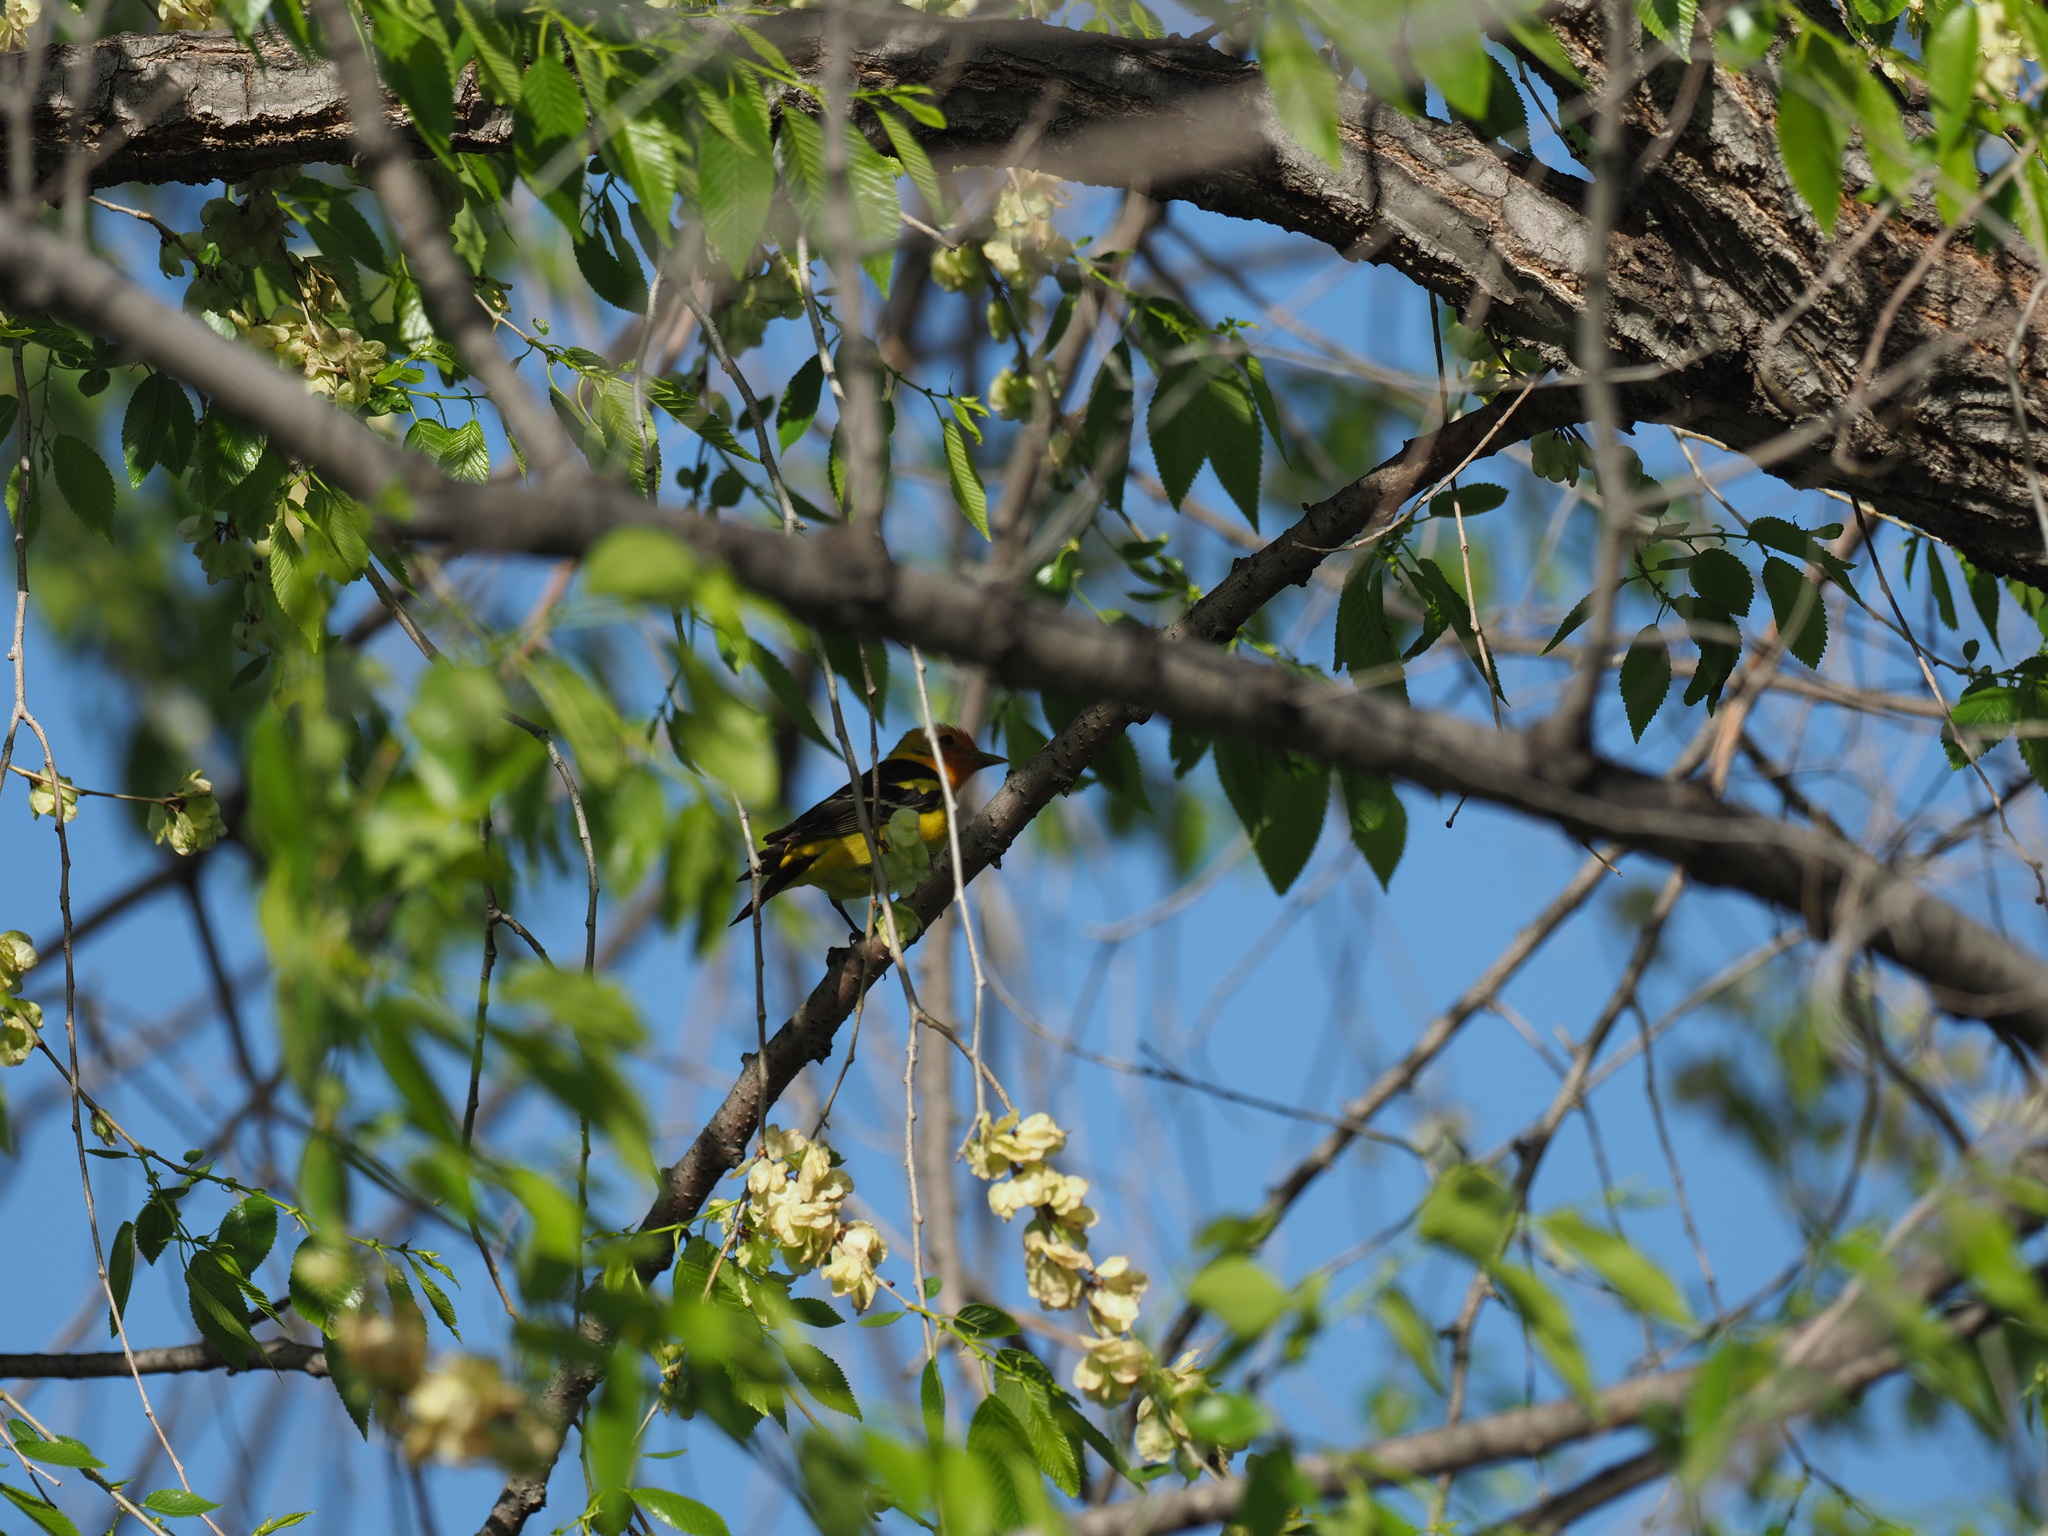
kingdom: Animalia
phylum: Chordata
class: Aves
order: Passeriformes
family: Cardinalidae
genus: Piranga
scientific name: Piranga ludoviciana
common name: Western tanager
